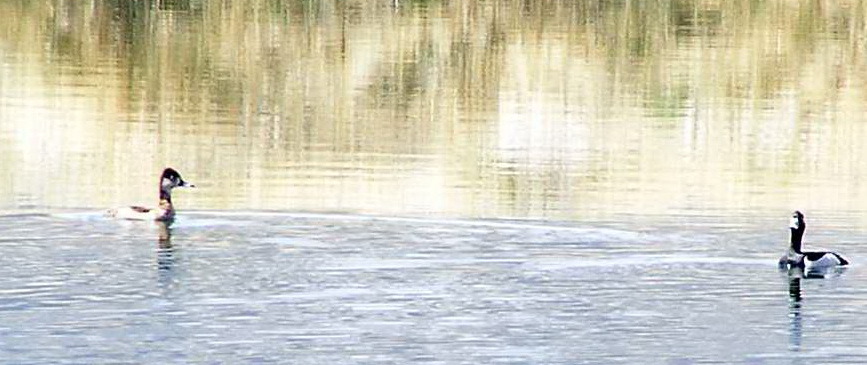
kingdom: Animalia
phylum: Chordata
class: Aves
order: Anseriformes
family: Anatidae
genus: Aythya
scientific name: Aythya collaris
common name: Ring-necked duck
